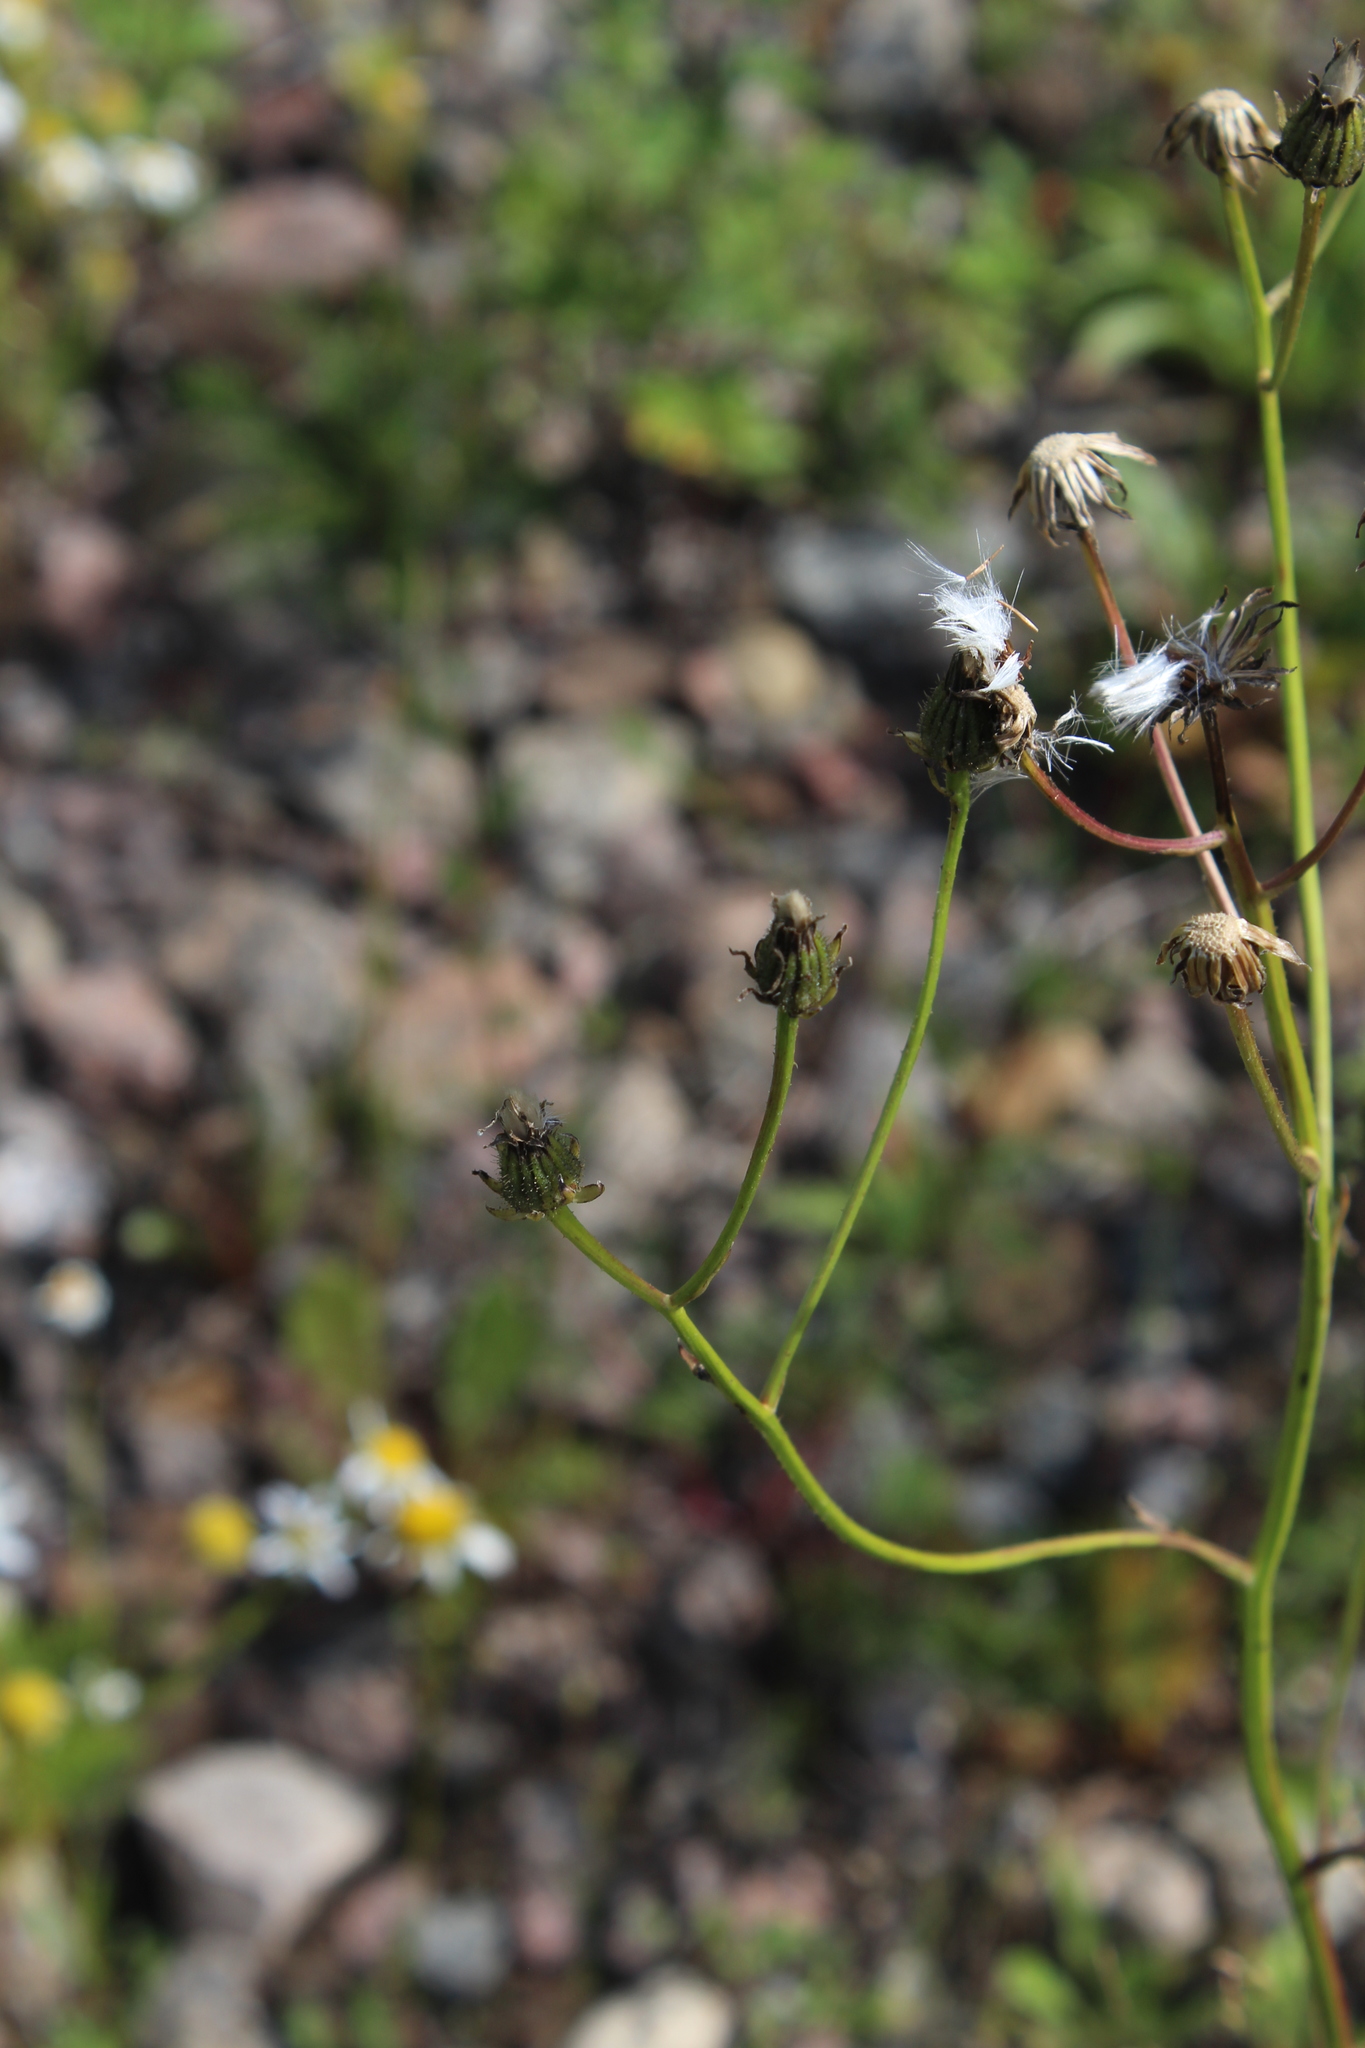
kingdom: Plantae
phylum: Tracheophyta
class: Magnoliopsida
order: Asterales
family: Asteraceae
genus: Crepis
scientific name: Crepis biennis
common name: Rough hawk's-beard
